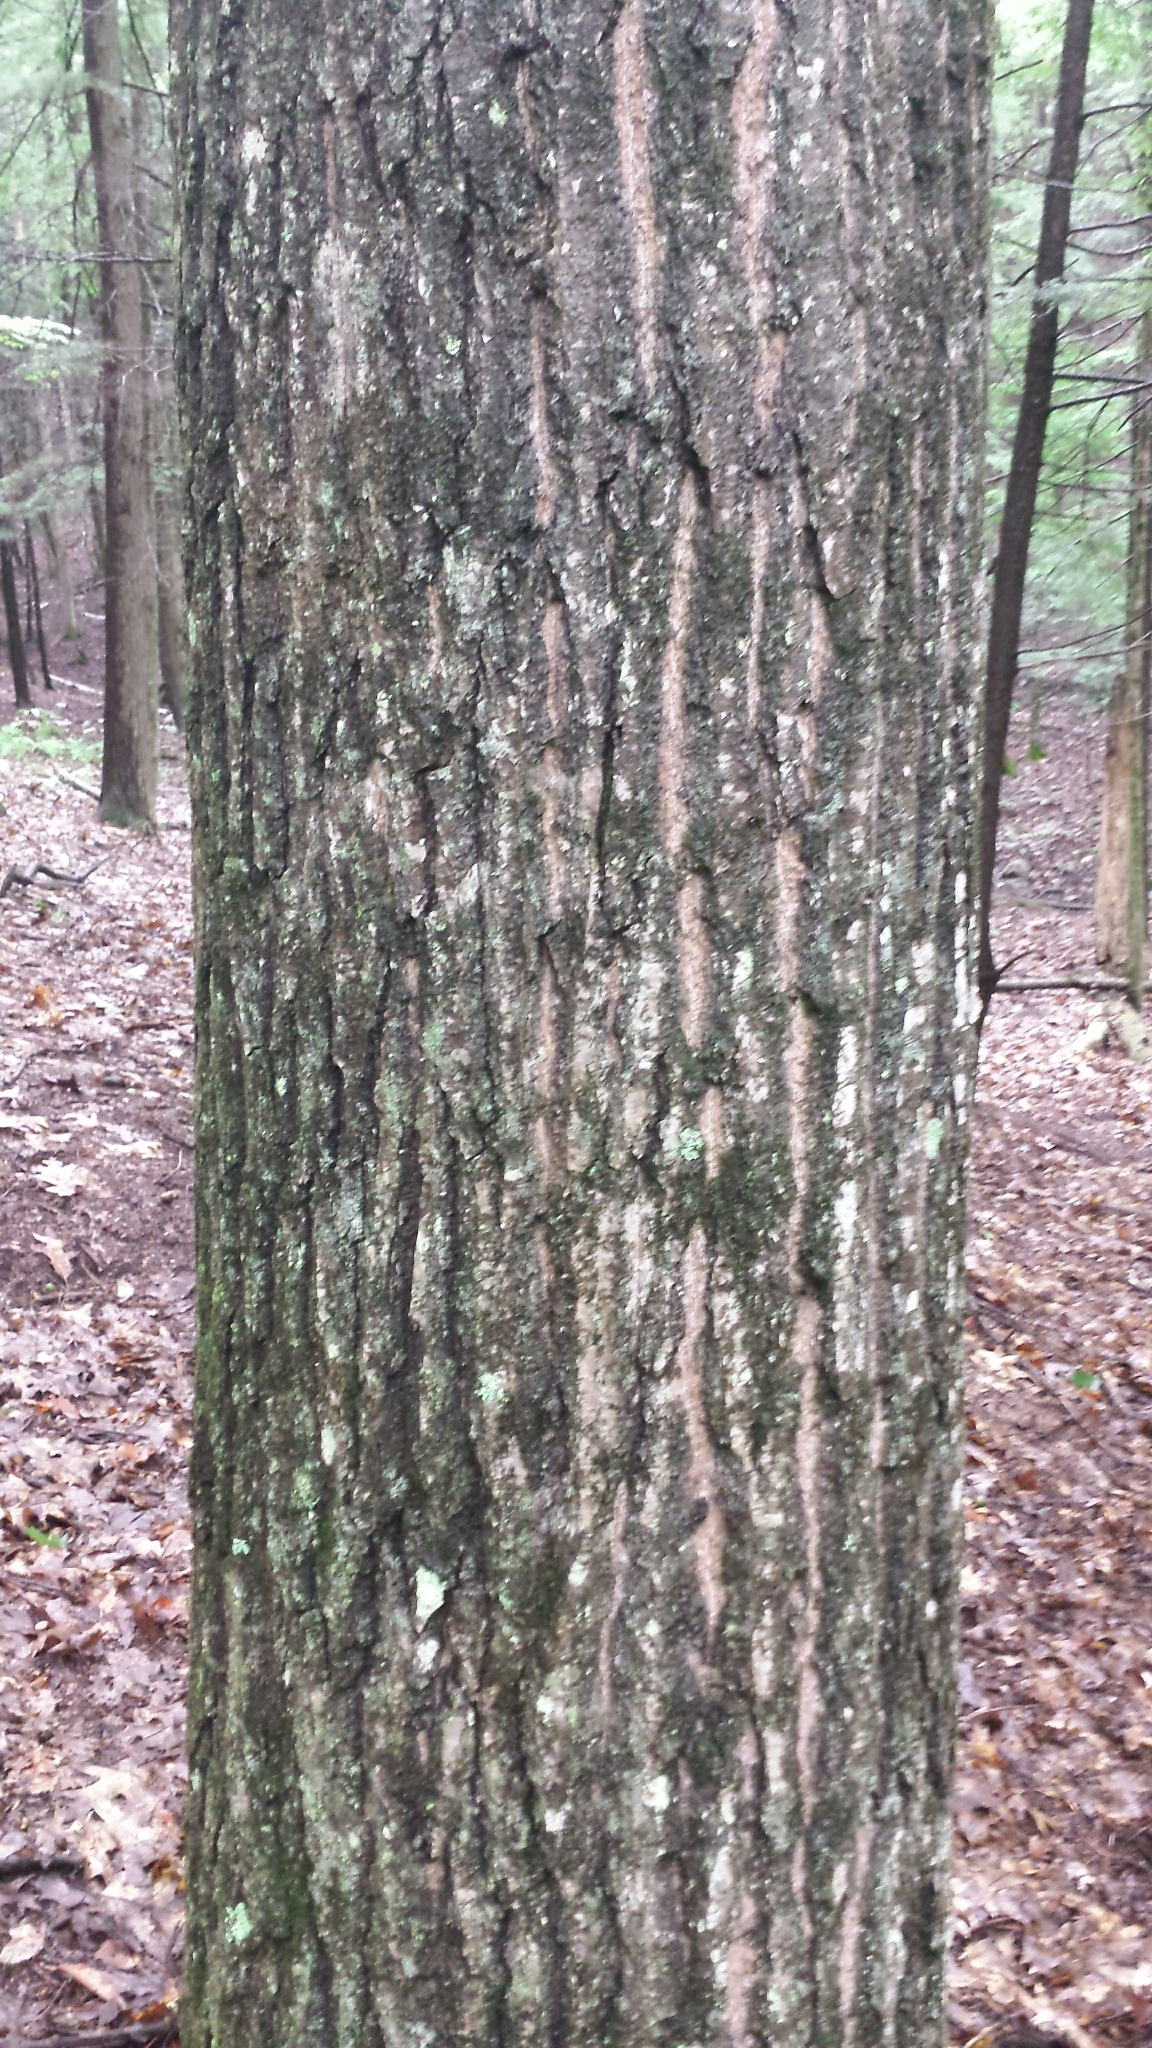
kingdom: Plantae
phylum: Tracheophyta
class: Magnoliopsida
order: Fagales
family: Fagaceae
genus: Quercus
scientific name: Quercus rubra
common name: Red oak
